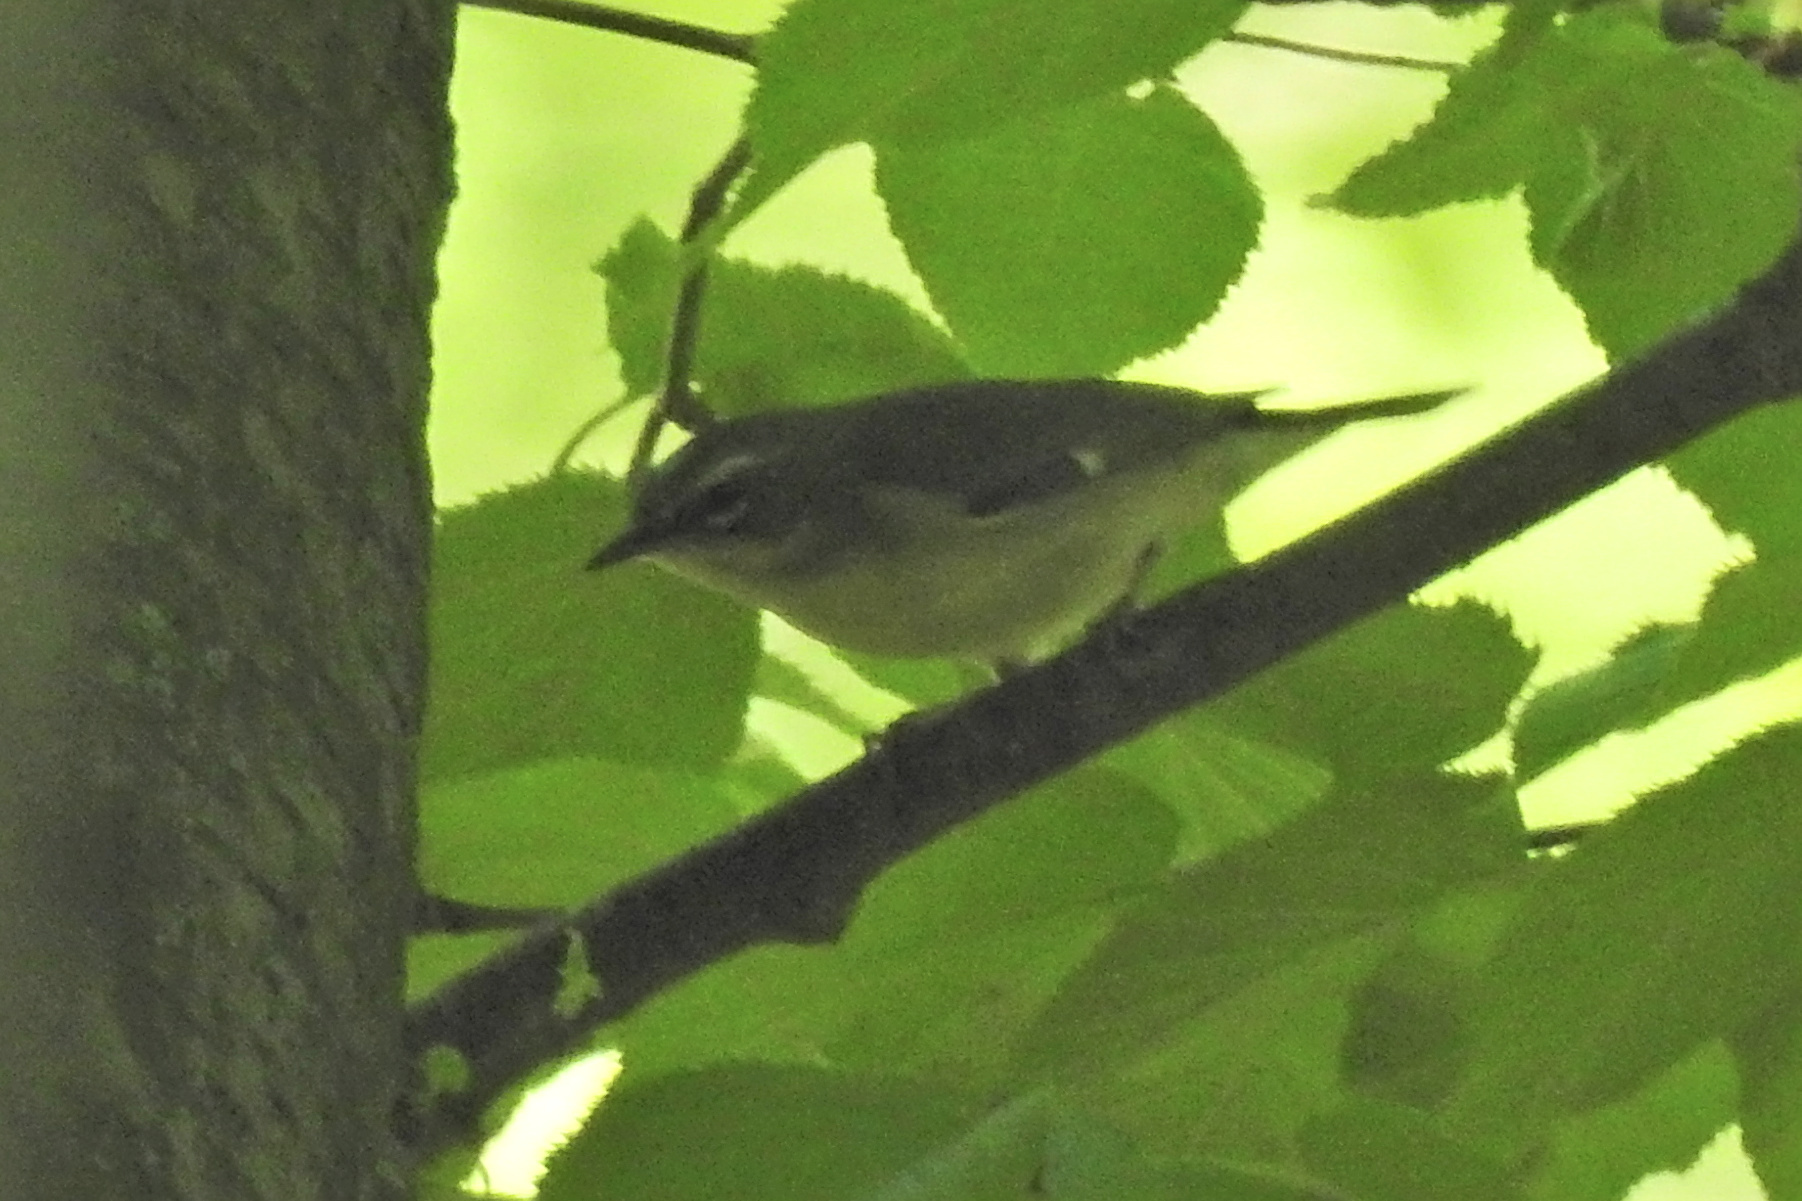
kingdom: Animalia
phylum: Chordata
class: Aves
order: Passeriformes
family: Parulidae
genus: Setophaga
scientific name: Setophaga caerulescens
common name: Black-throated blue warbler
